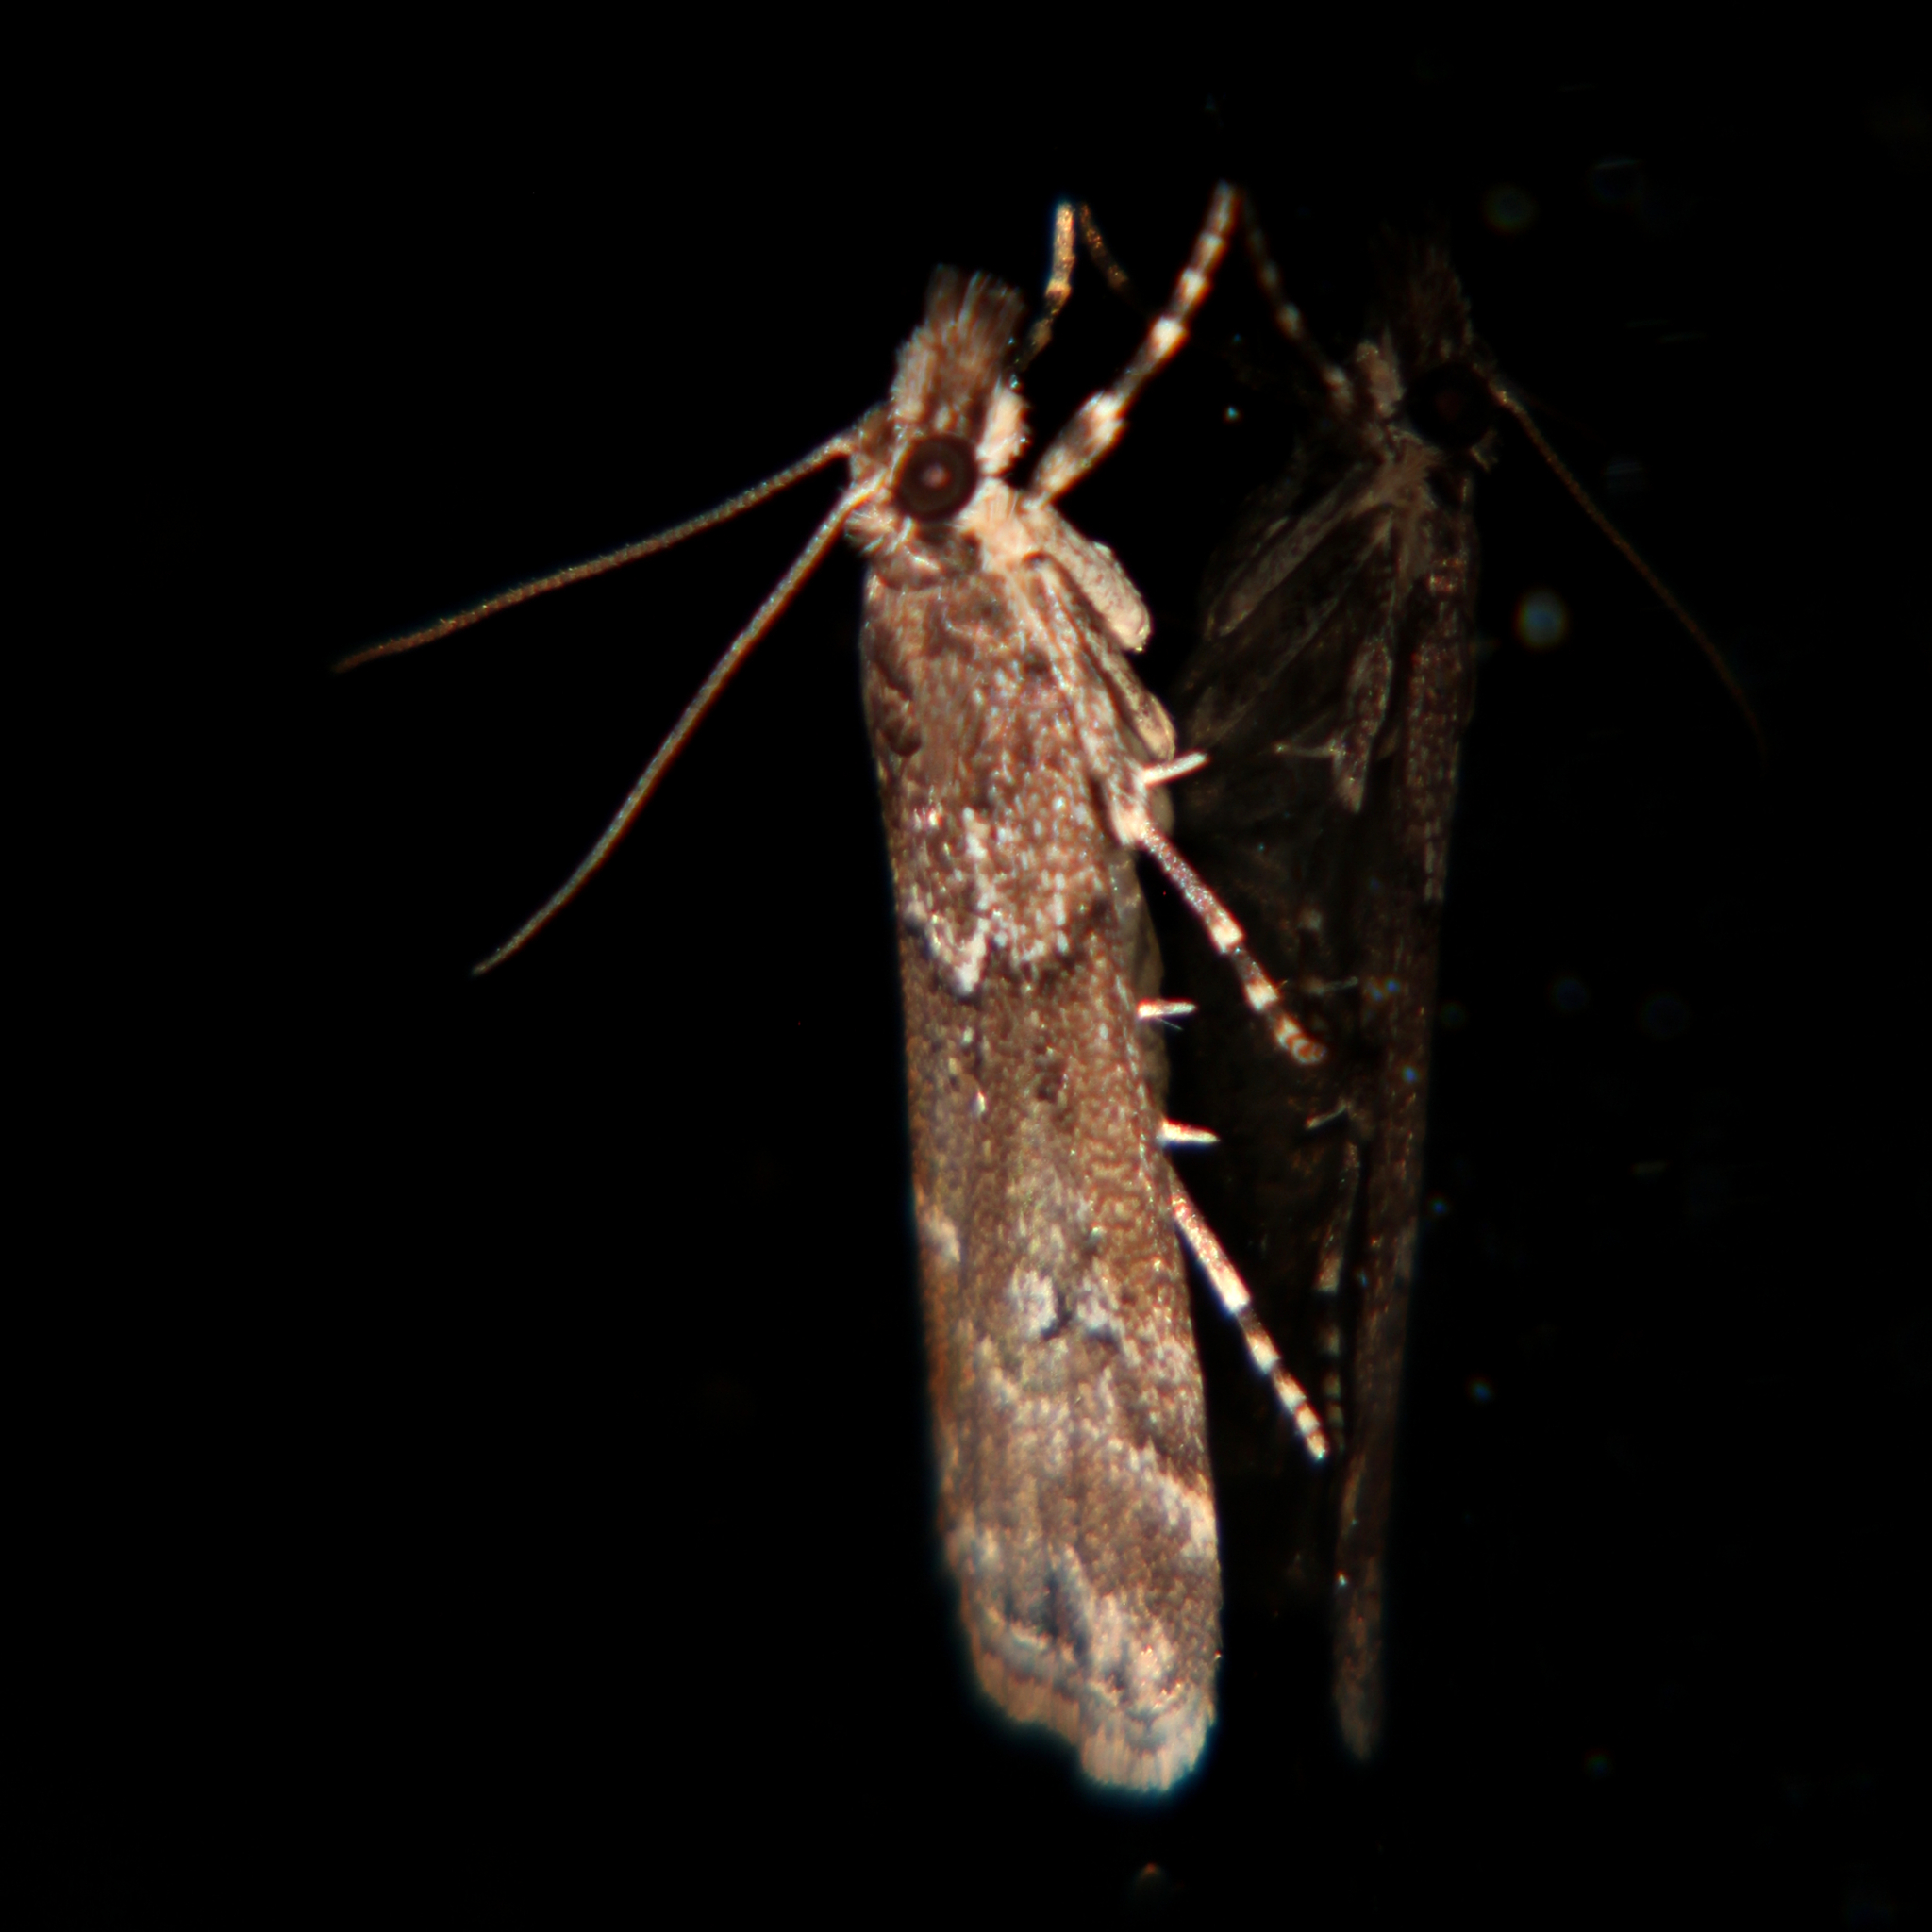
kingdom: Animalia
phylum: Arthropoda
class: Insecta
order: Lepidoptera
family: Crambidae
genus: Eudonia
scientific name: Eudonia dochmia
